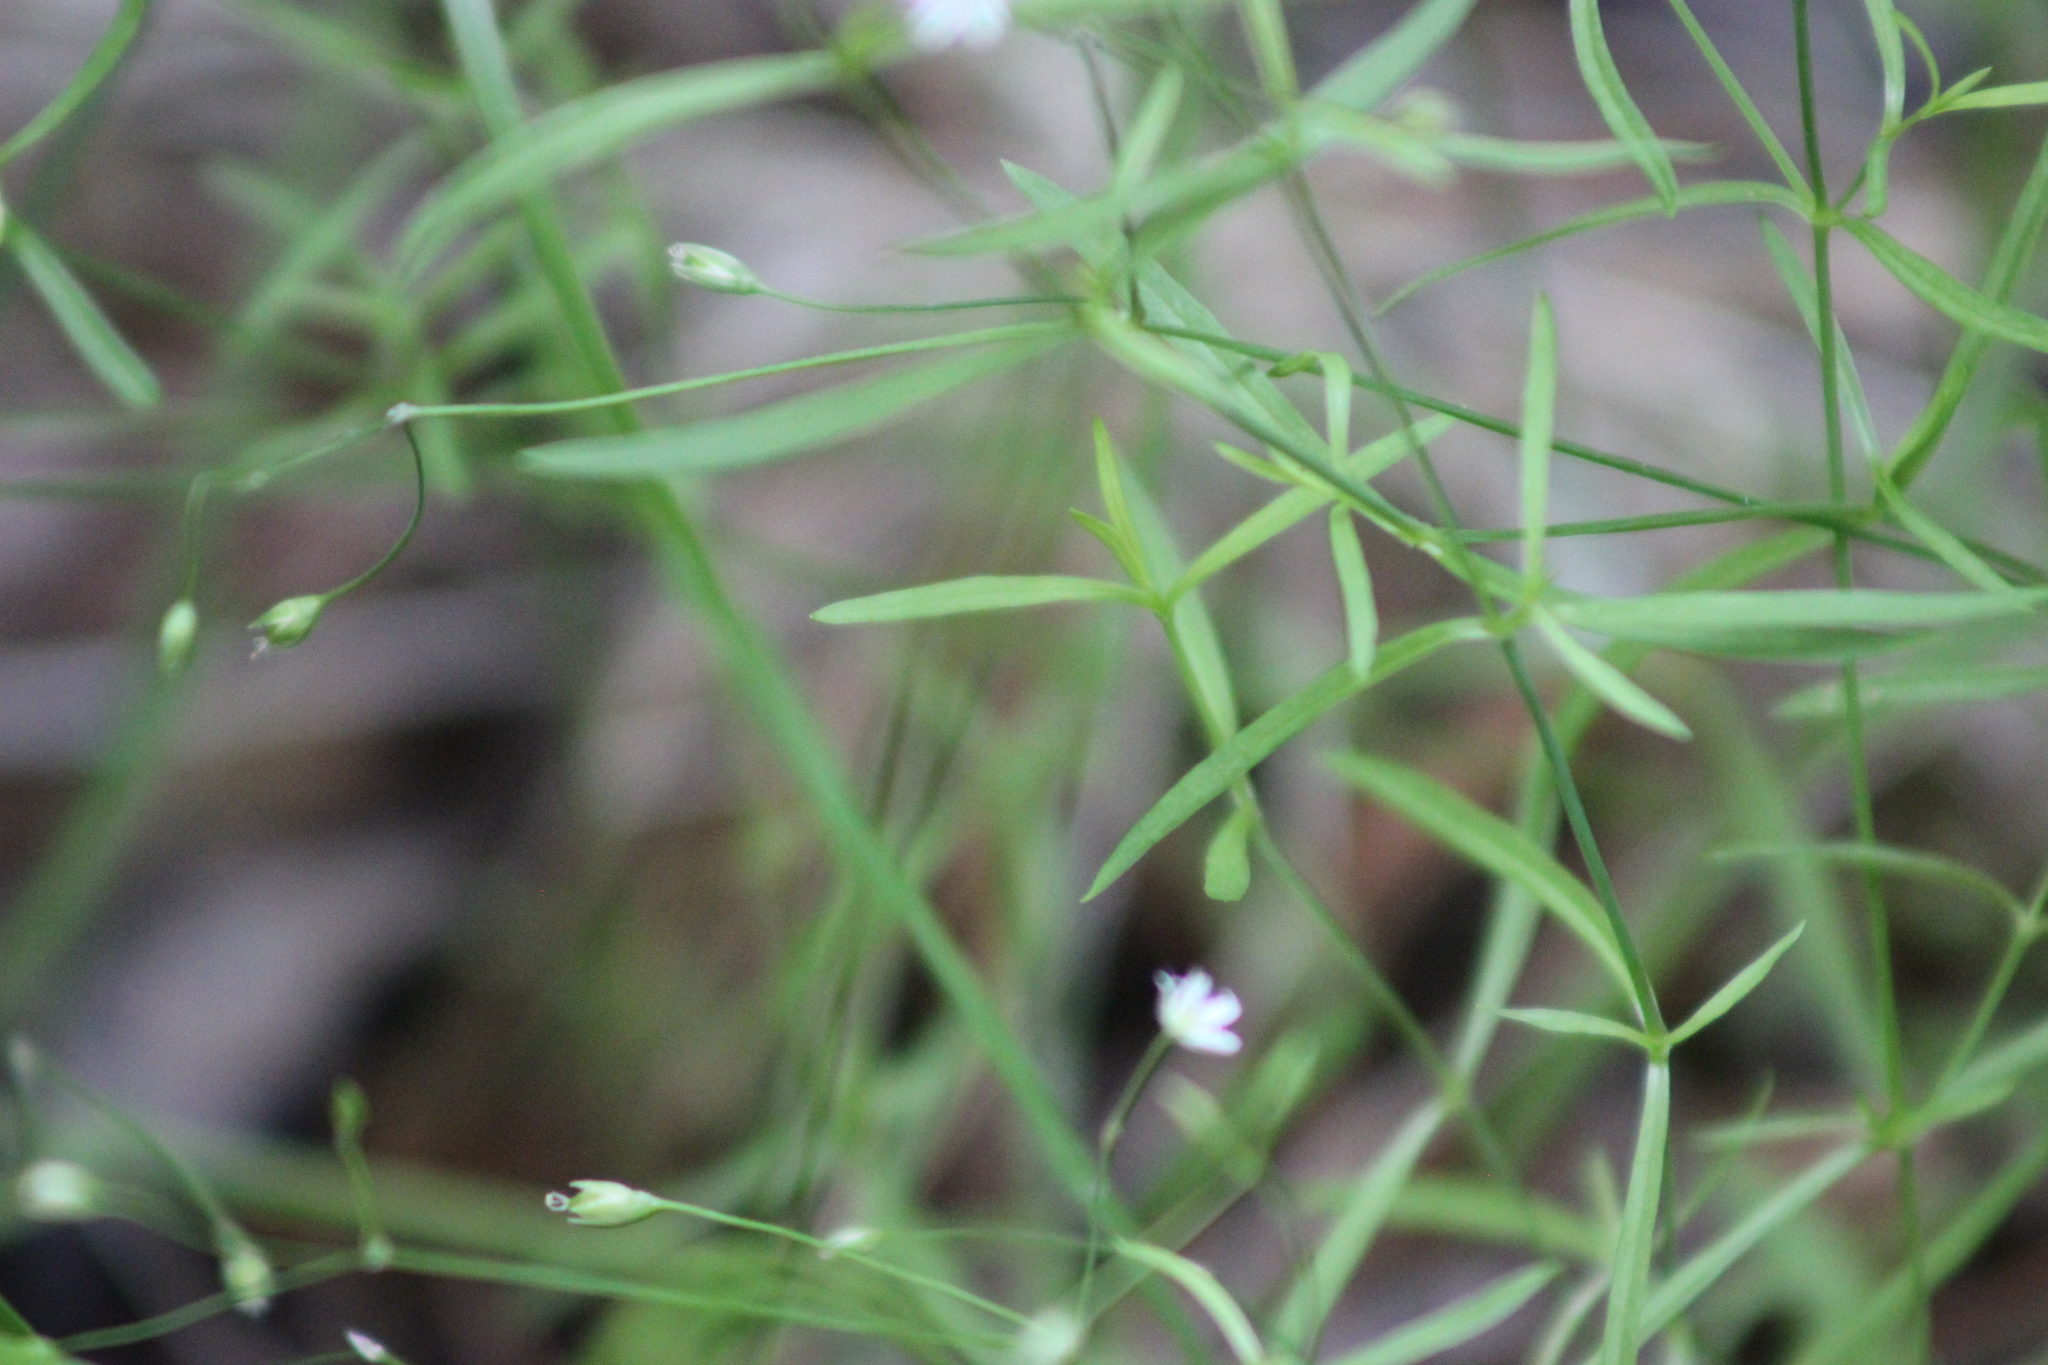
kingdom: Plantae
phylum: Tracheophyta
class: Magnoliopsida
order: Caryophyllales
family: Caryophyllaceae
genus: Stellaria
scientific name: Stellaria longifolia
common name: Long-leaved chickweed
